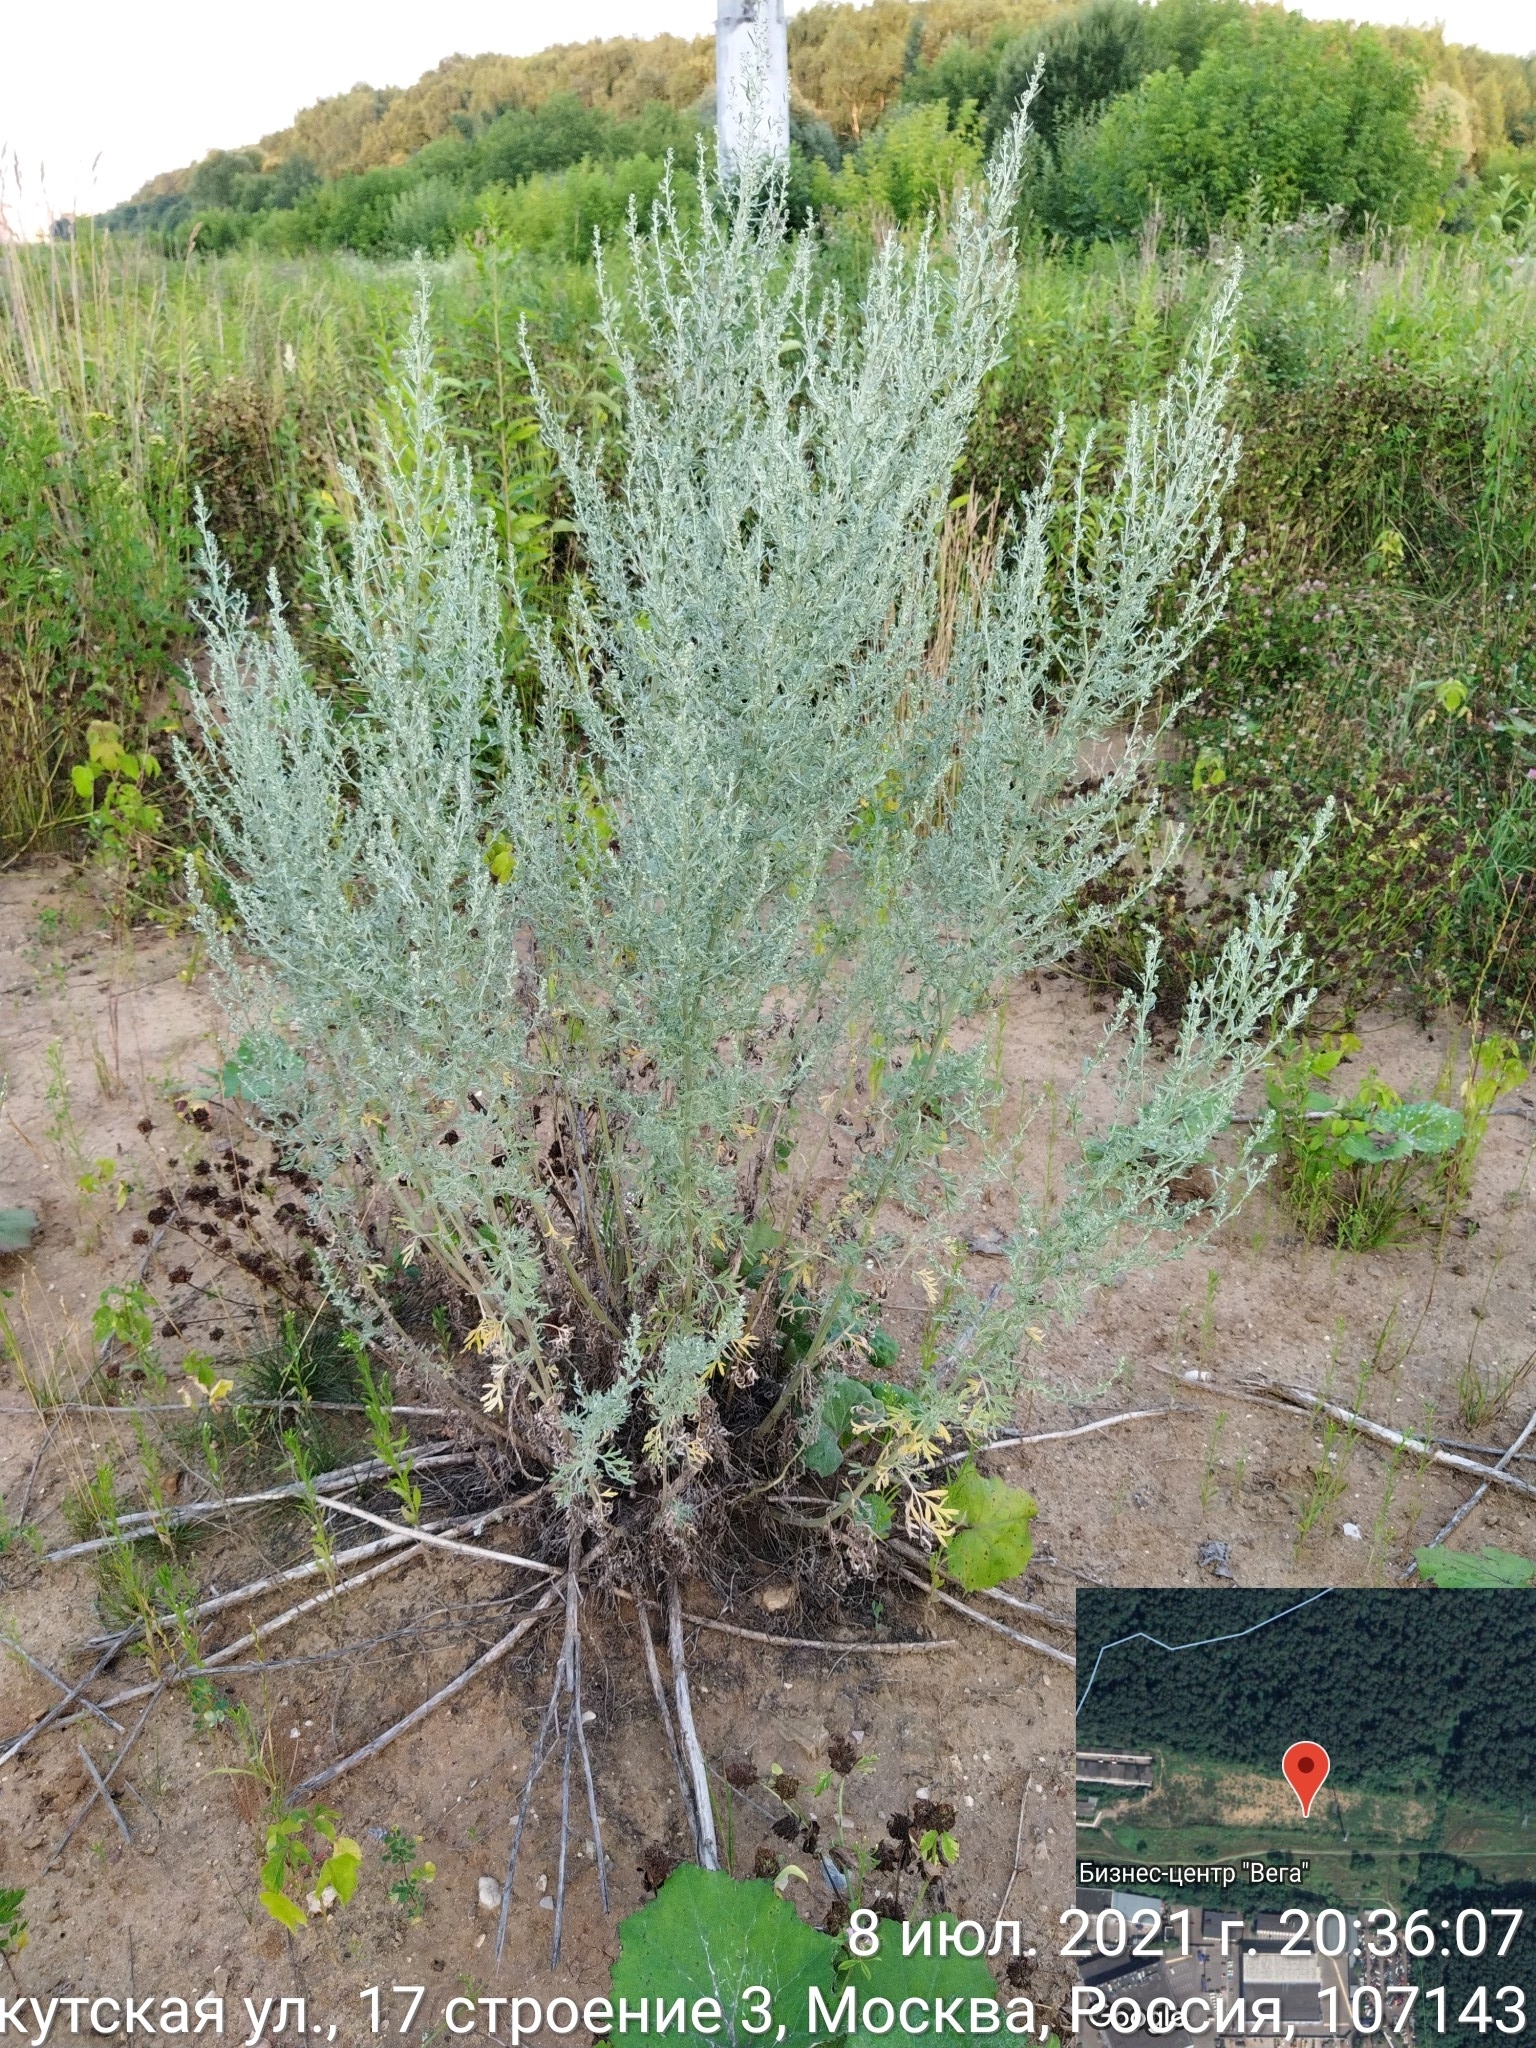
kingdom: Plantae
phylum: Tracheophyta
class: Magnoliopsida
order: Asterales
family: Asteraceae
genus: Artemisia
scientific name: Artemisia absinthium
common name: Wormwood
